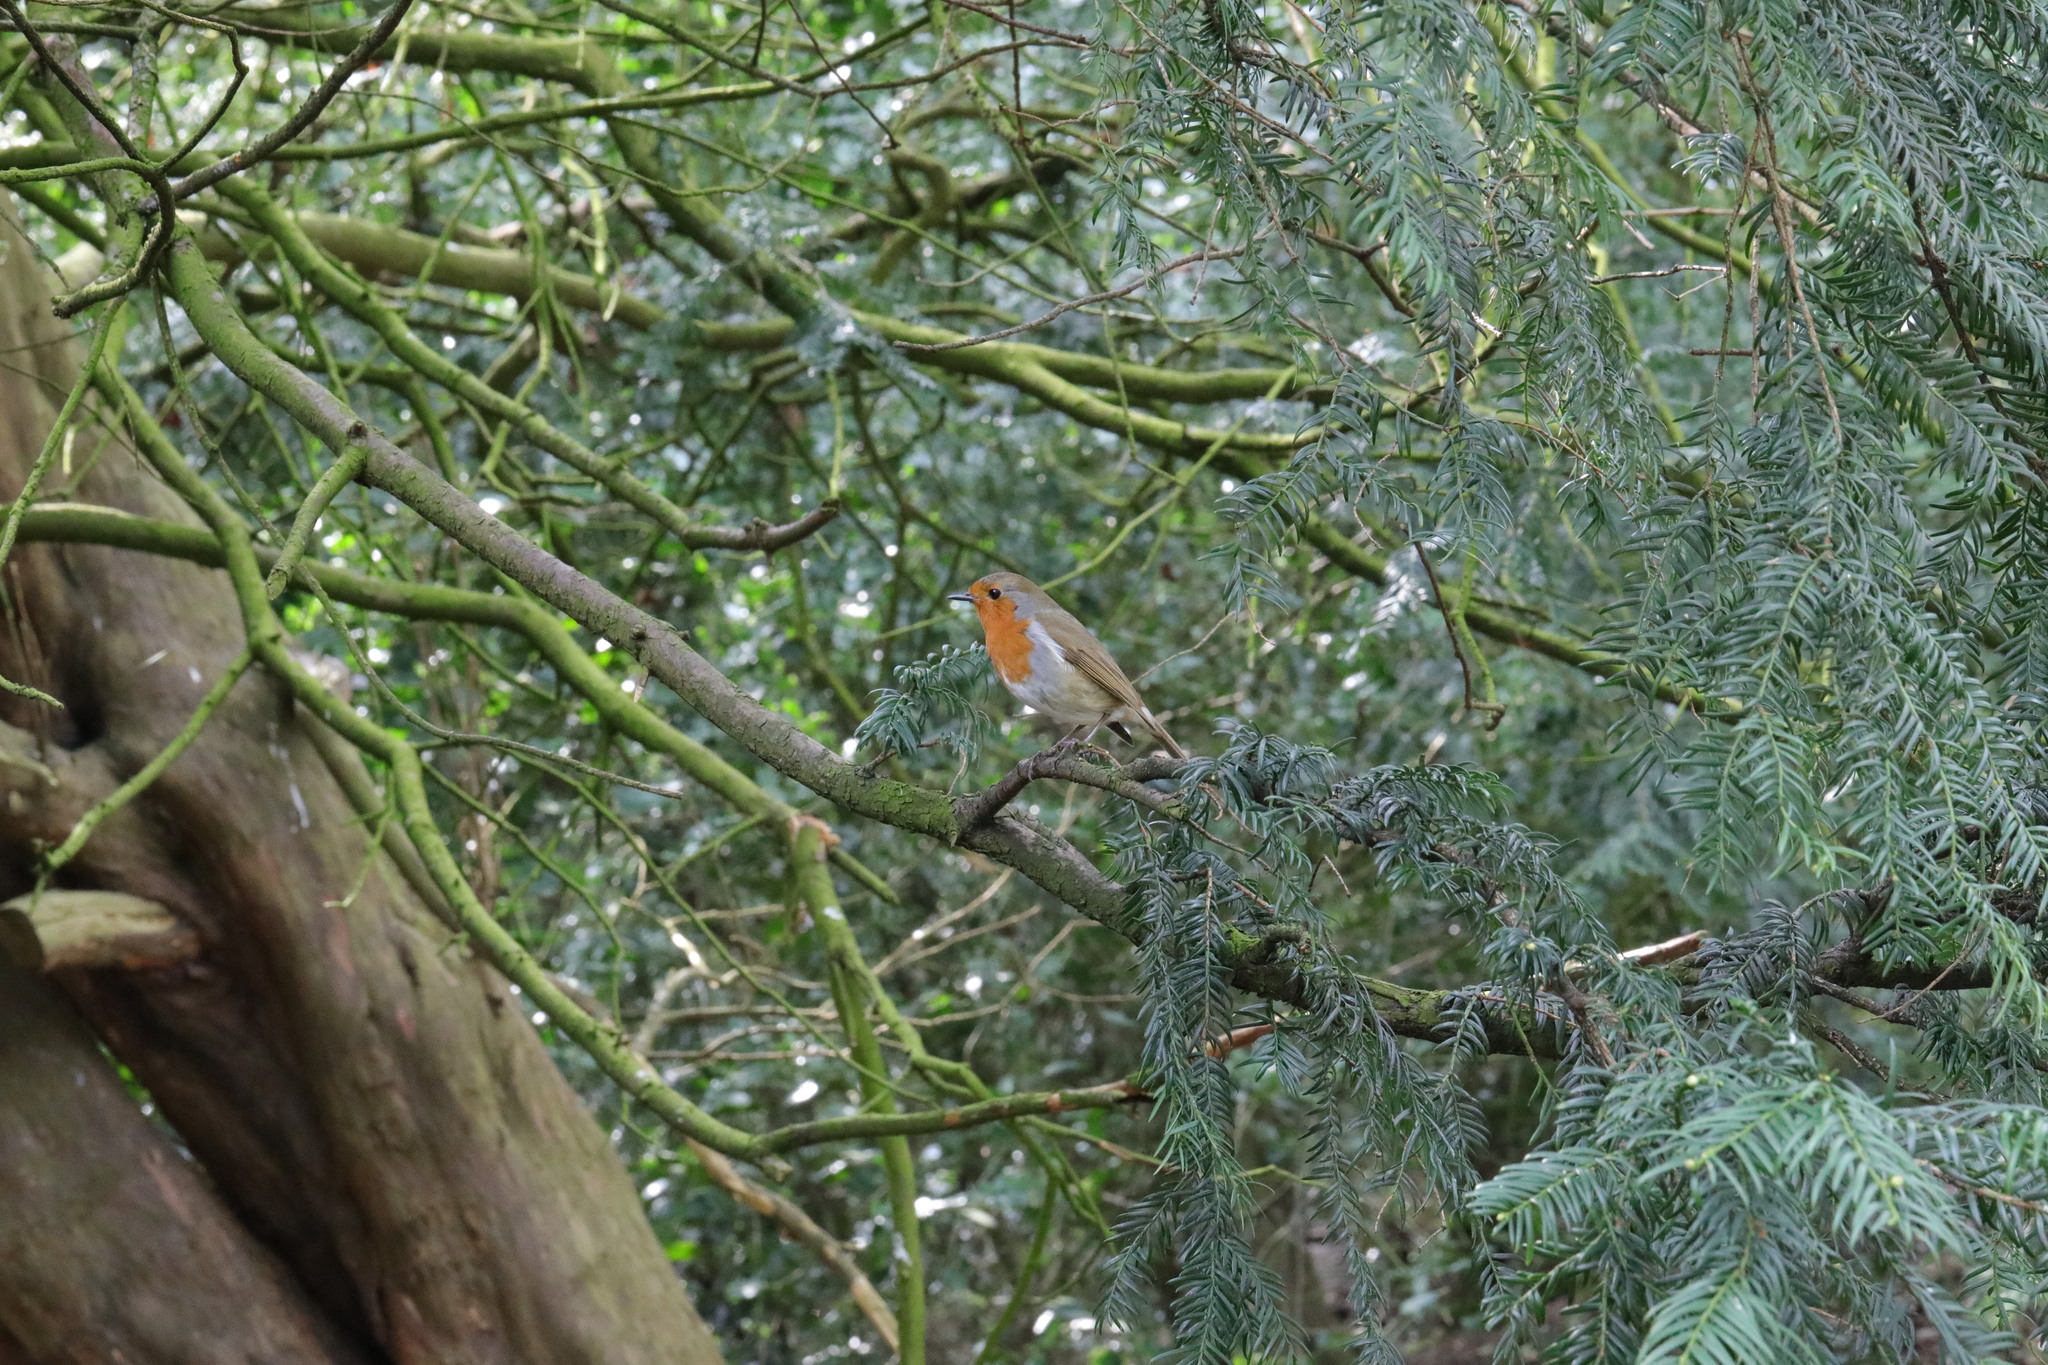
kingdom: Animalia
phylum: Chordata
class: Aves
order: Passeriformes
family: Muscicapidae
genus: Erithacus
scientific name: Erithacus rubecula
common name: European robin
